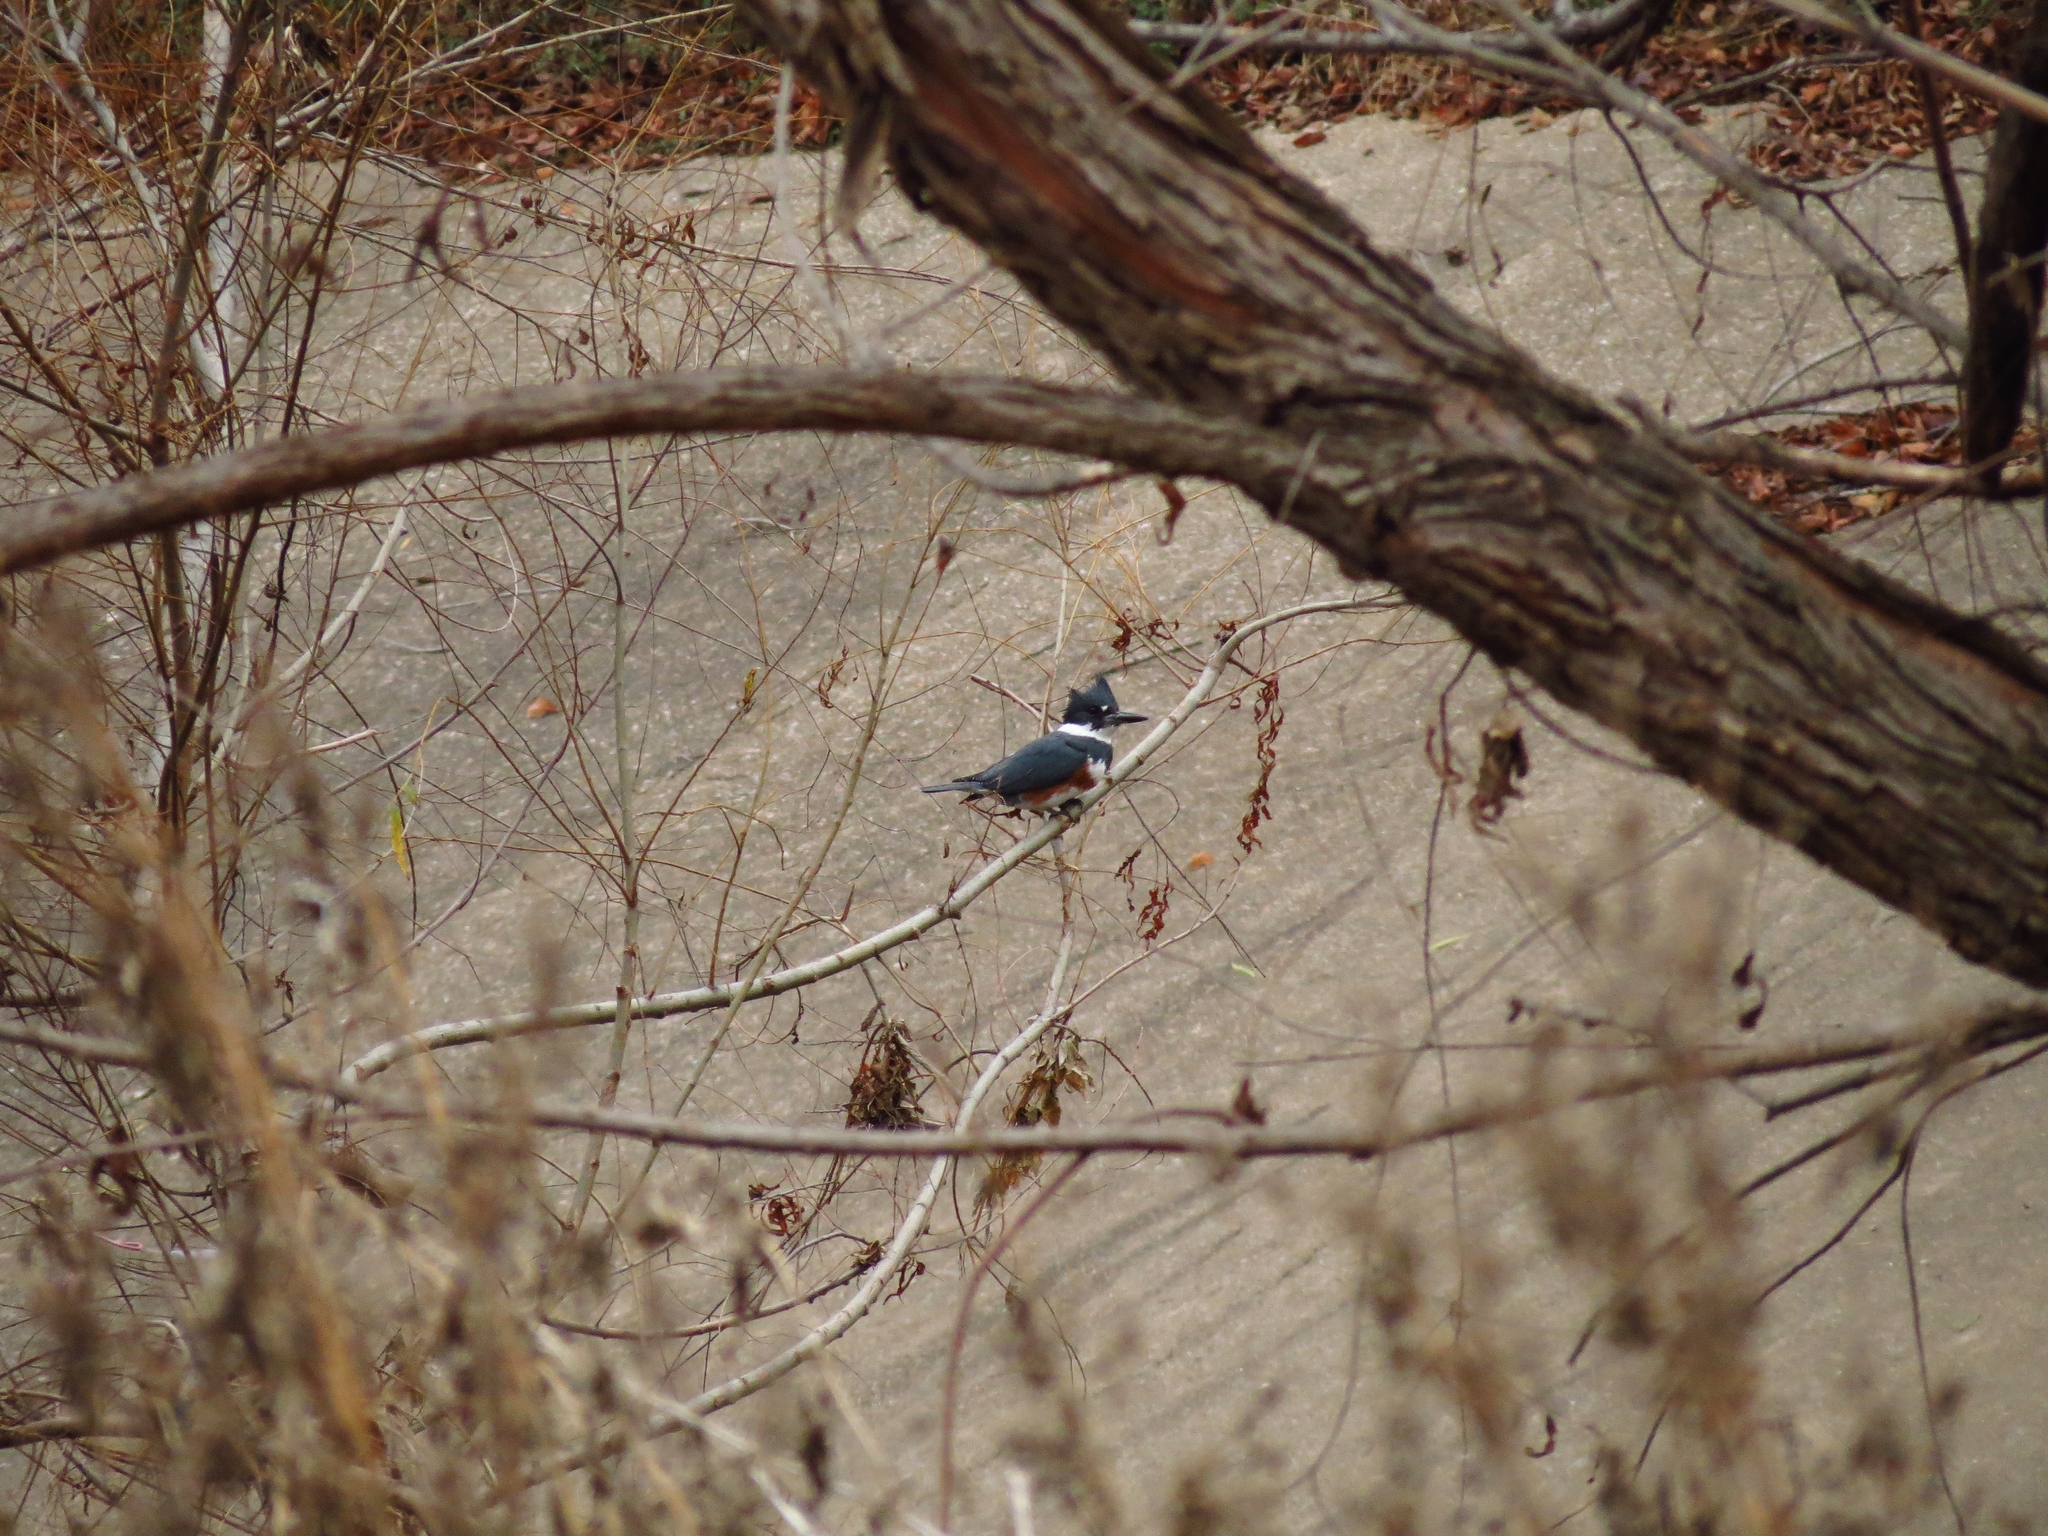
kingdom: Animalia
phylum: Chordata
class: Aves
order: Coraciiformes
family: Alcedinidae
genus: Megaceryle
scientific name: Megaceryle alcyon
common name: Belted kingfisher
